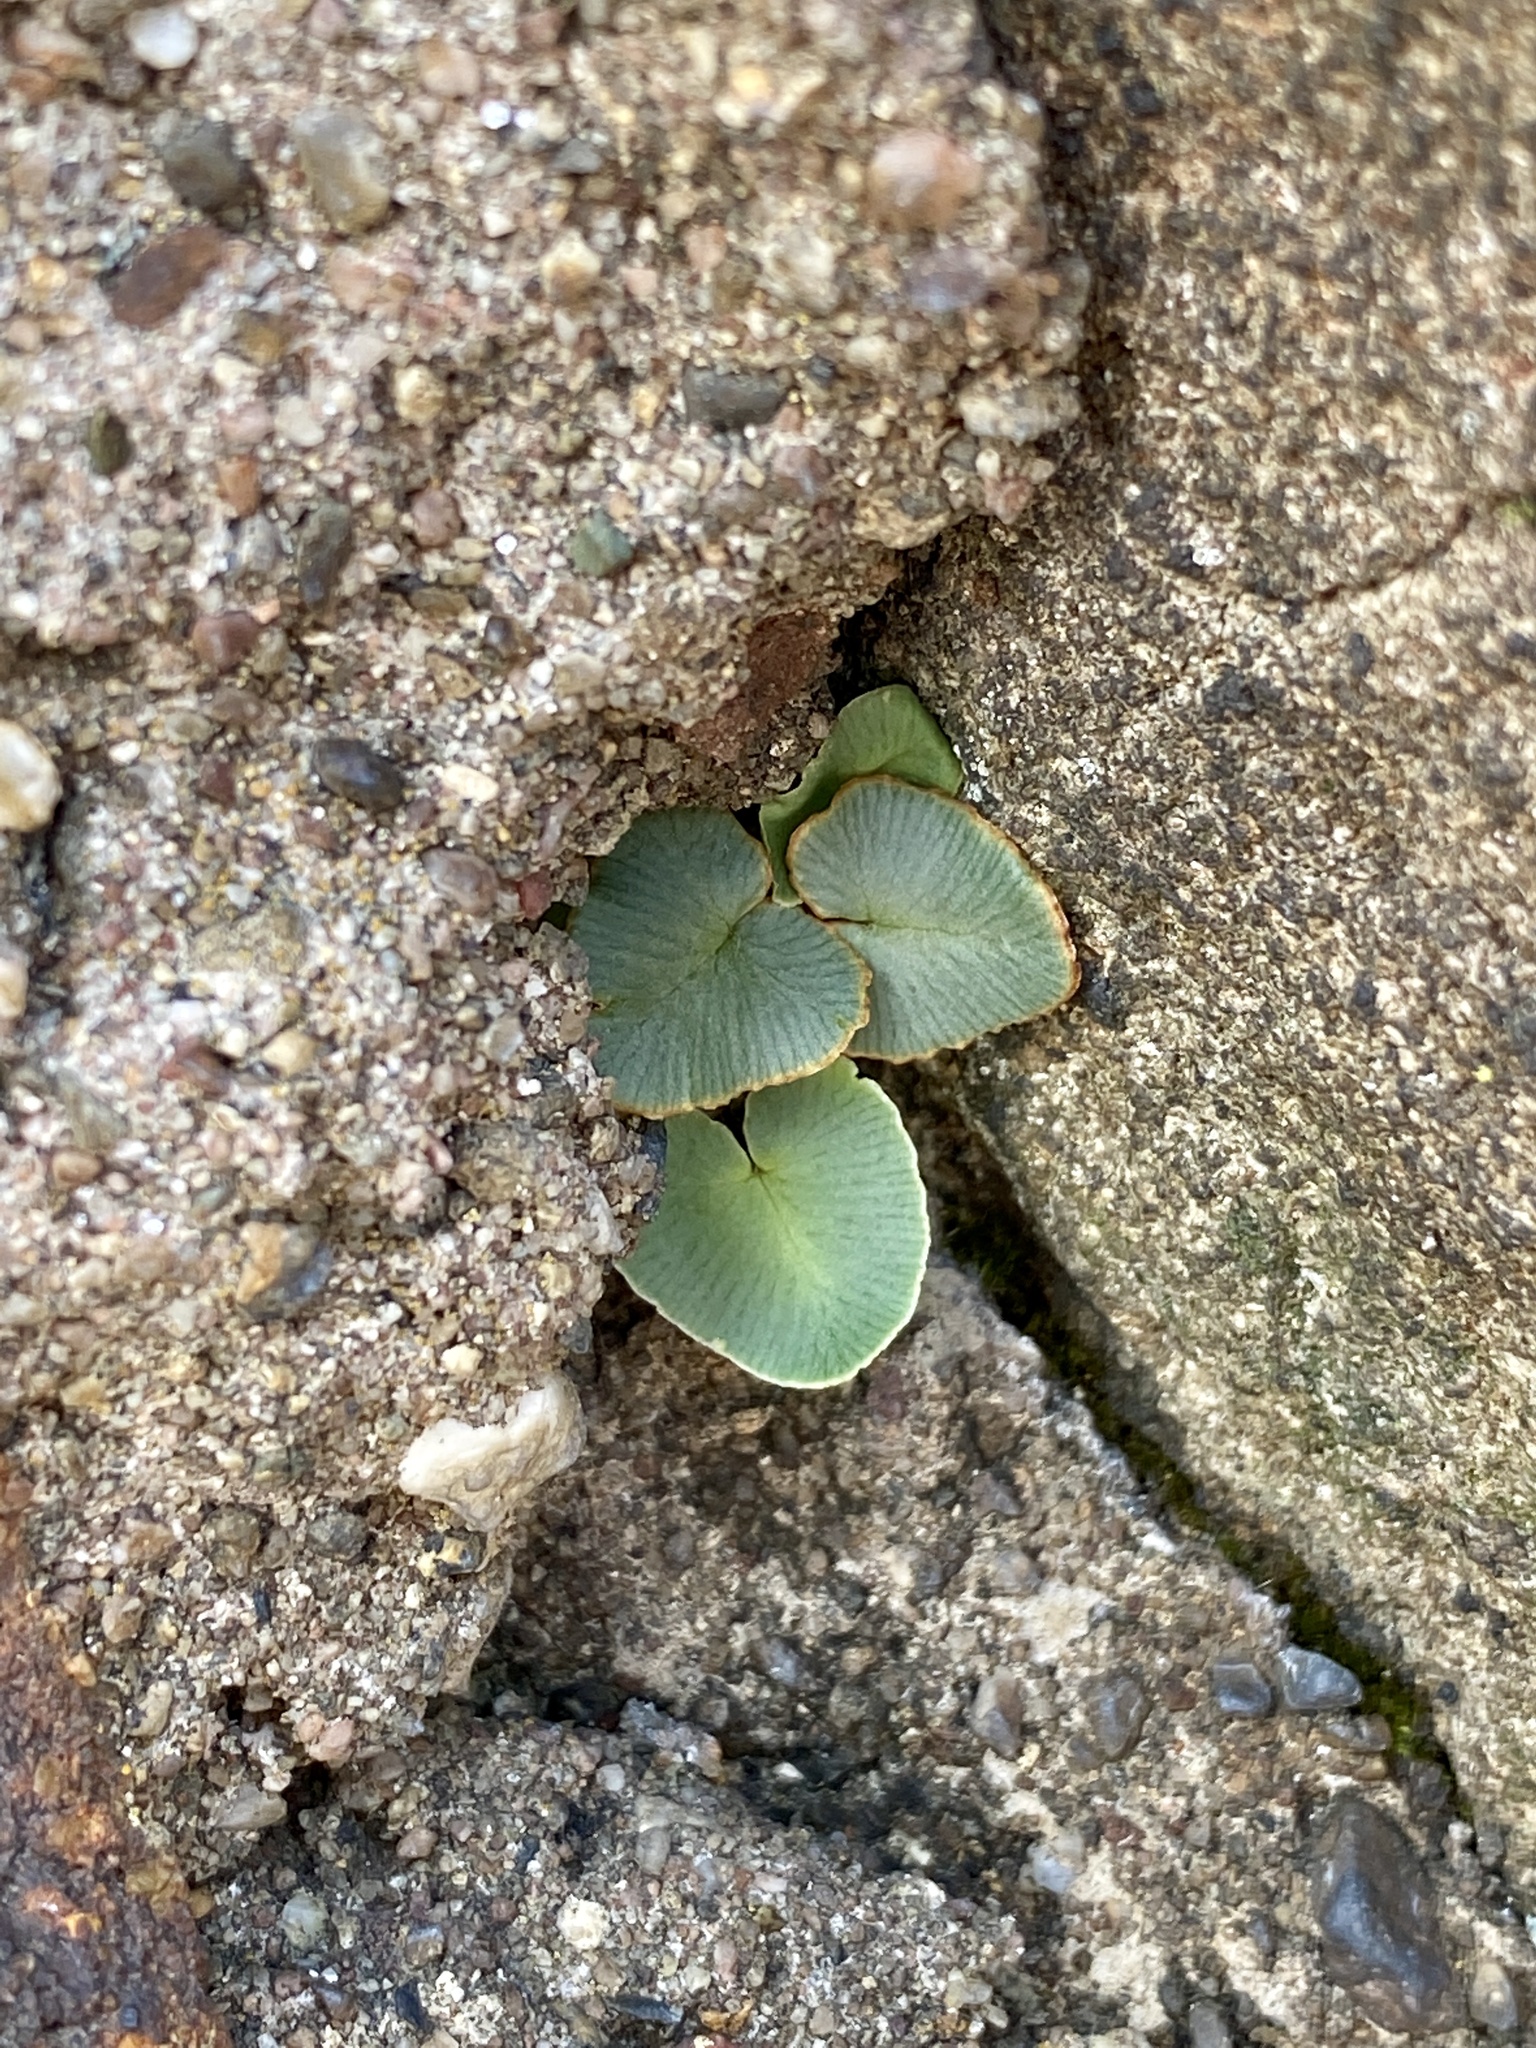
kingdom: Plantae
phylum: Tracheophyta
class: Polypodiopsida
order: Polypodiales
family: Pteridaceae
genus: Pellaea
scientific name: Pellaea atropurpurea
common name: Hairy cliffbrake
